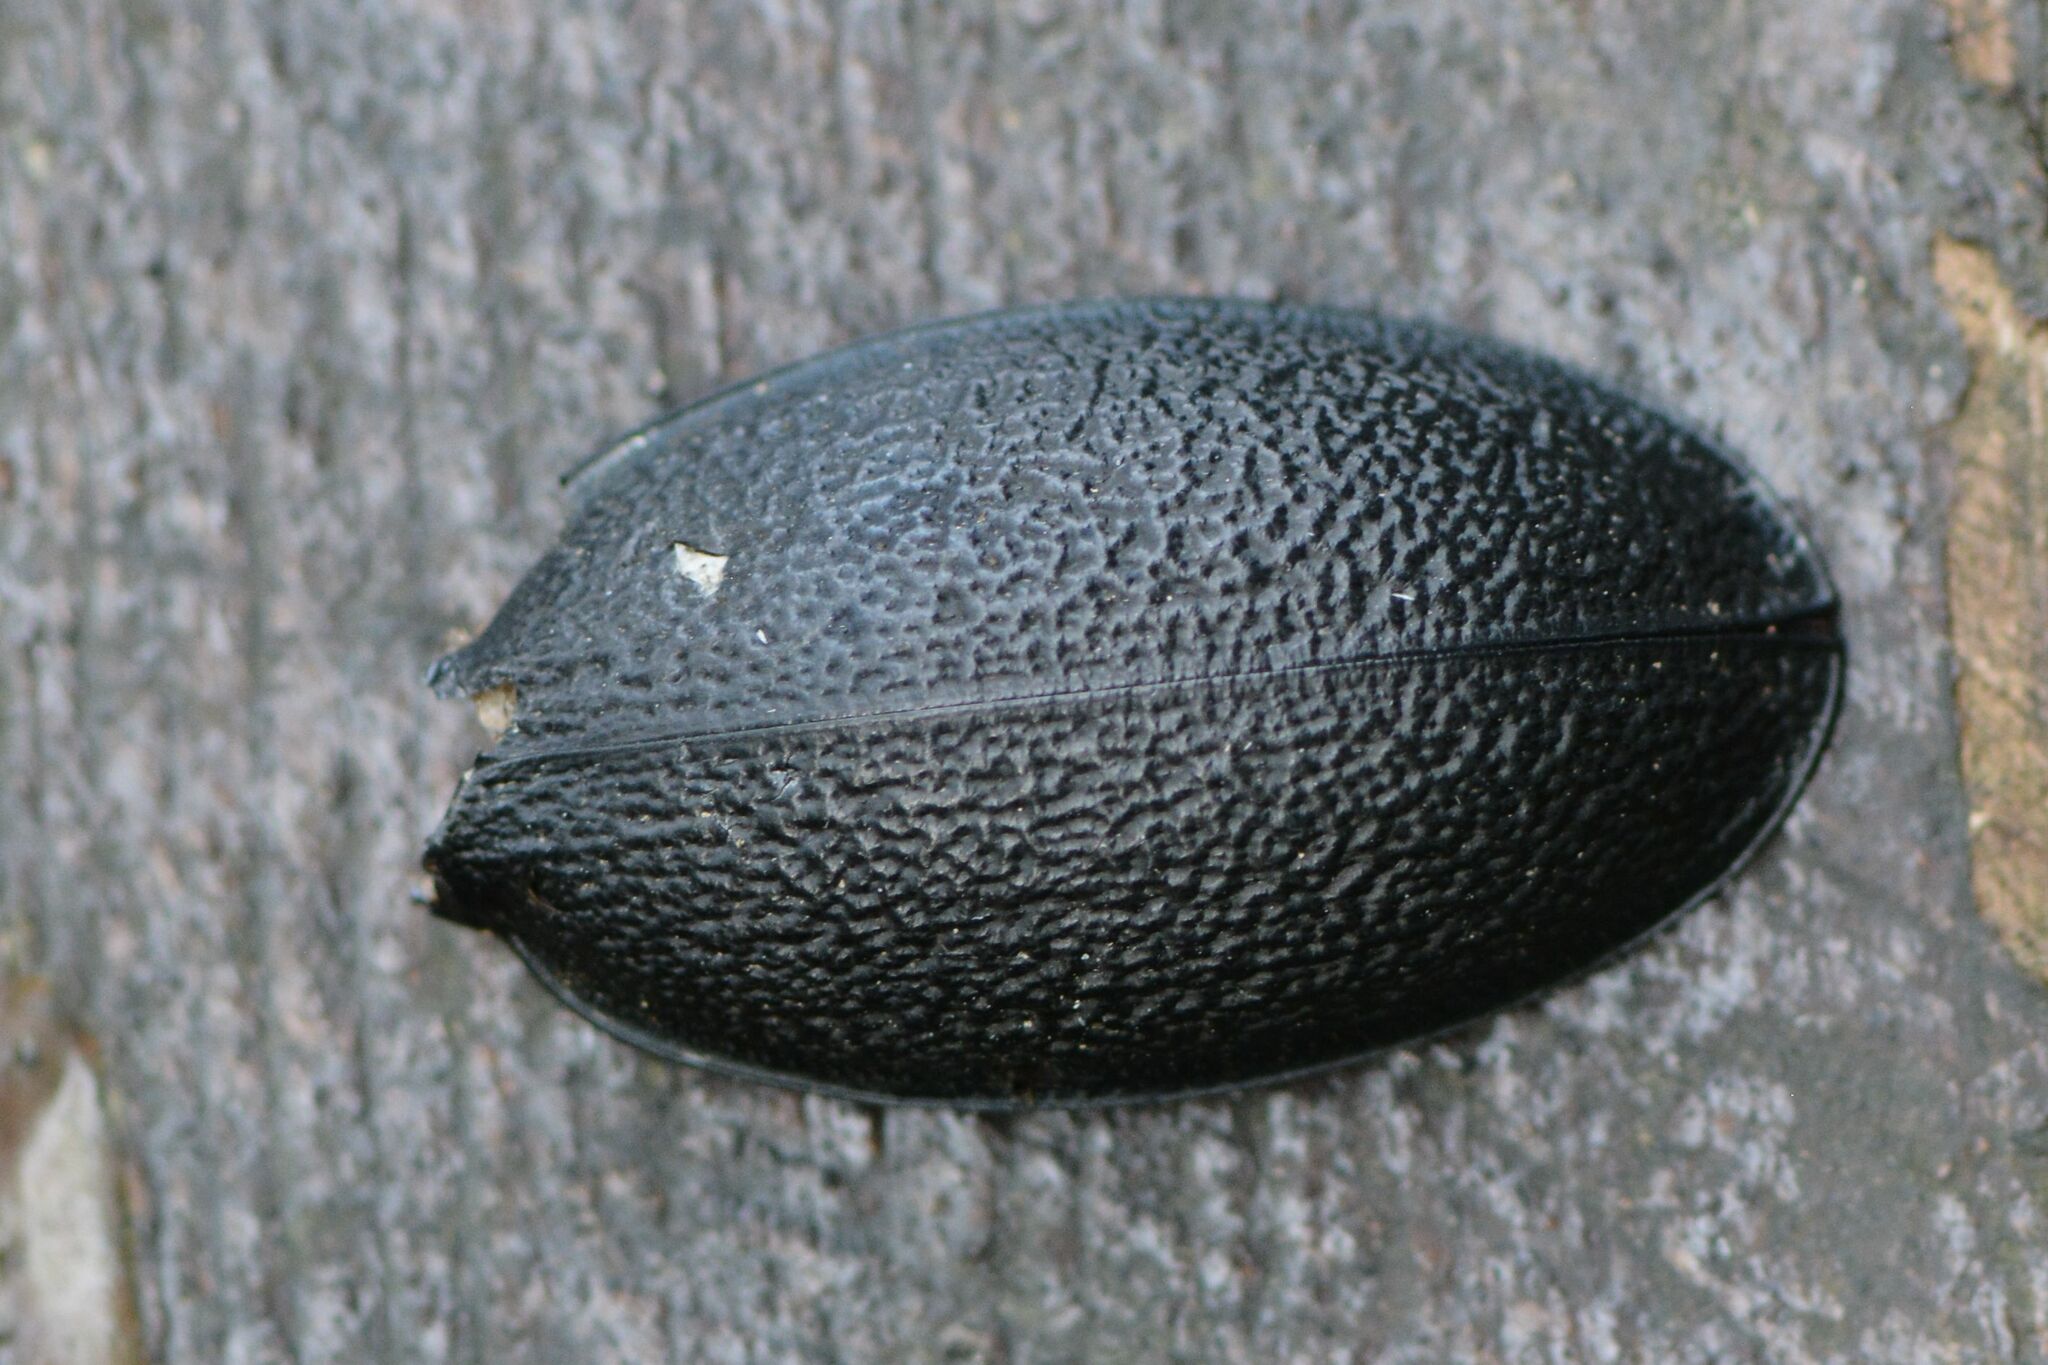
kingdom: Animalia
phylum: Arthropoda
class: Insecta
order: Coleoptera
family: Carabidae
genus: Carabus
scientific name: Carabus coriaceus
